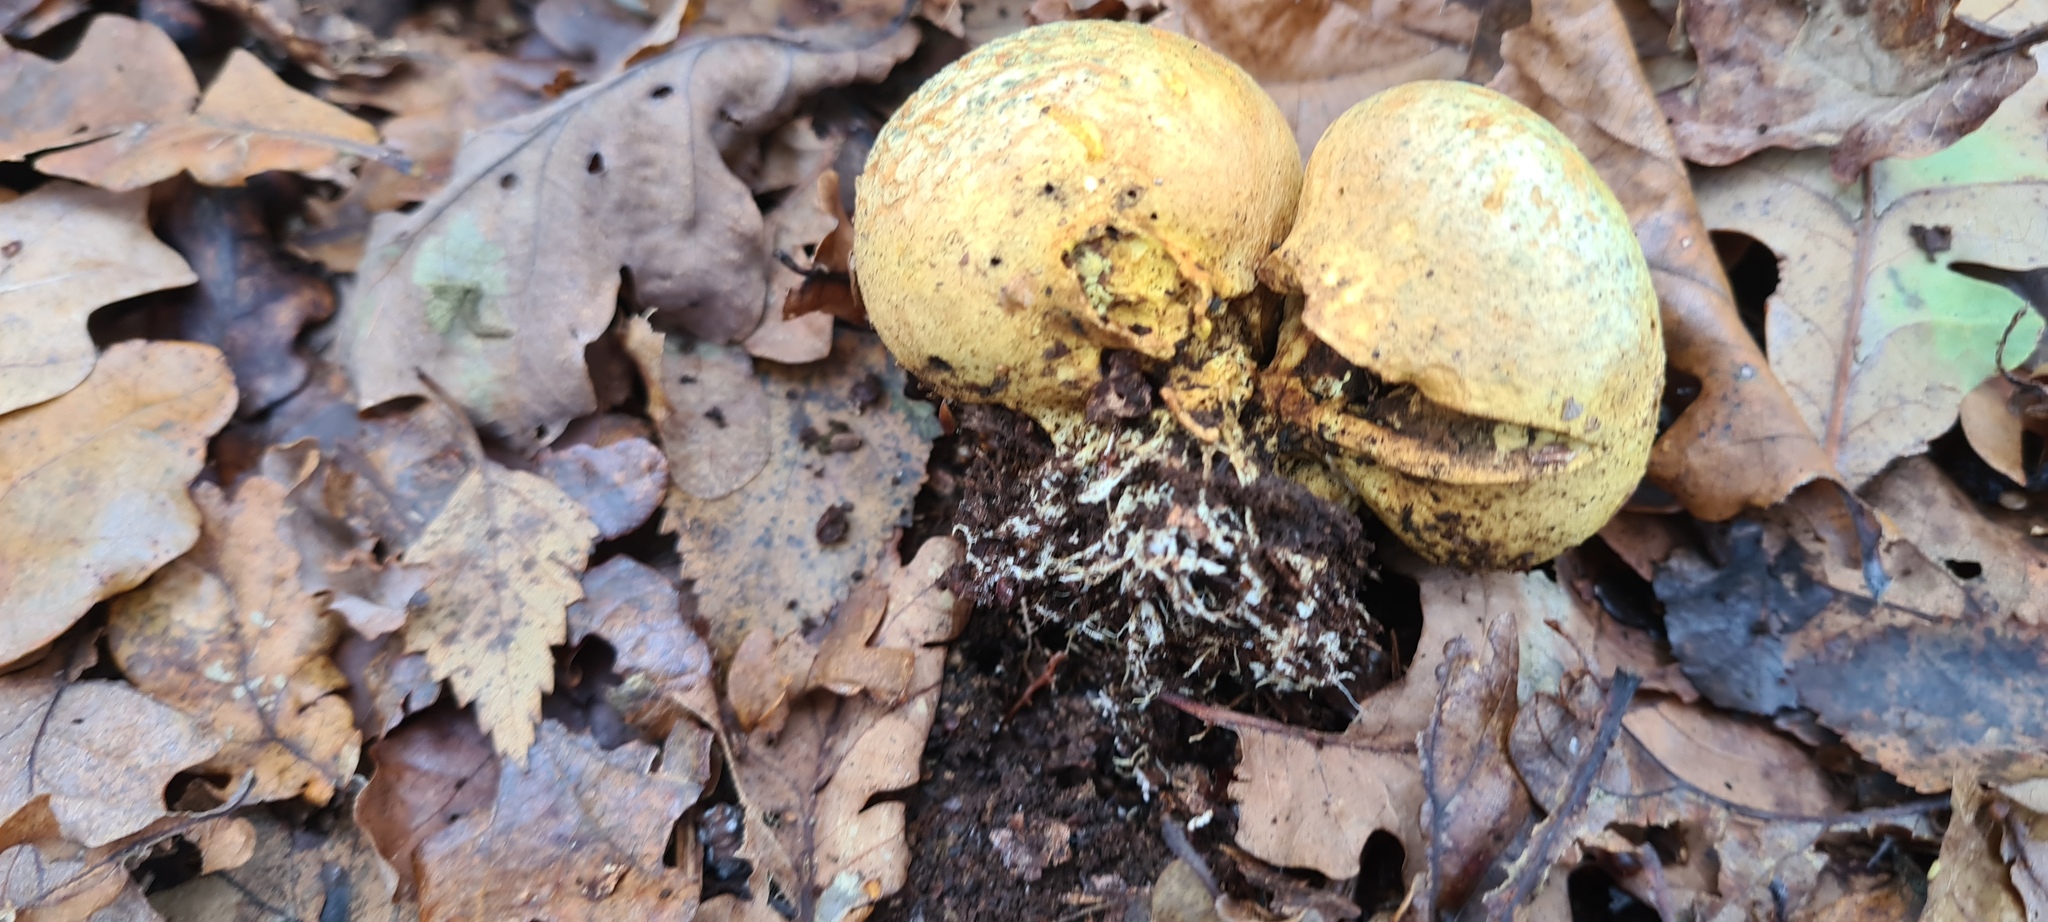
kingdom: Fungi
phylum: Basidiomycota
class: Agaricomycetes
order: Boletales
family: Sclerodermataceae
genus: Scleroderma
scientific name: Scleroderma citrinum
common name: Common earthball
